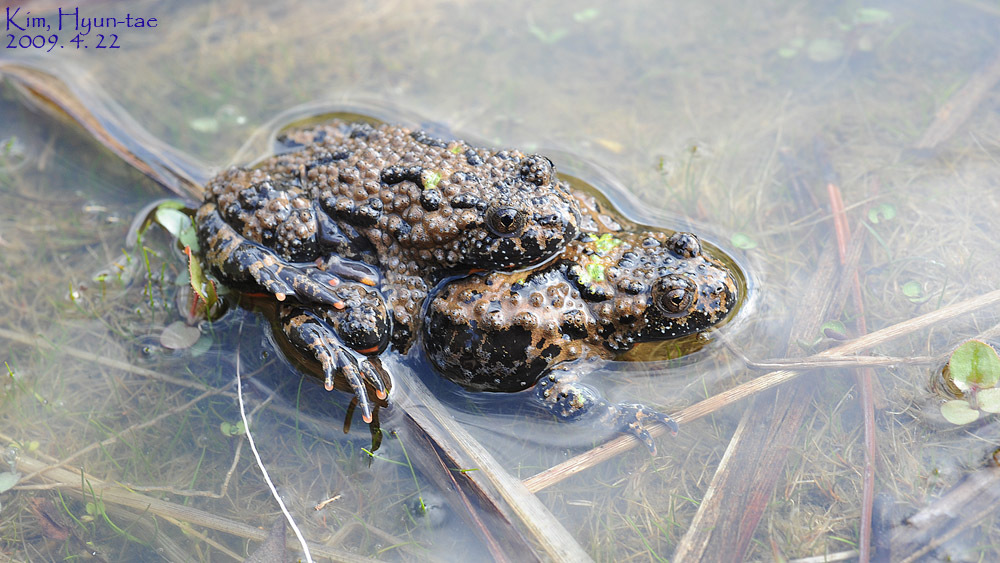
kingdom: Animalia
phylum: Chordata
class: Amphibia
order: Anura
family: Bombinatoridae
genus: Bombina
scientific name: Bombina orientalis
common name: Oriental firebelly toad
